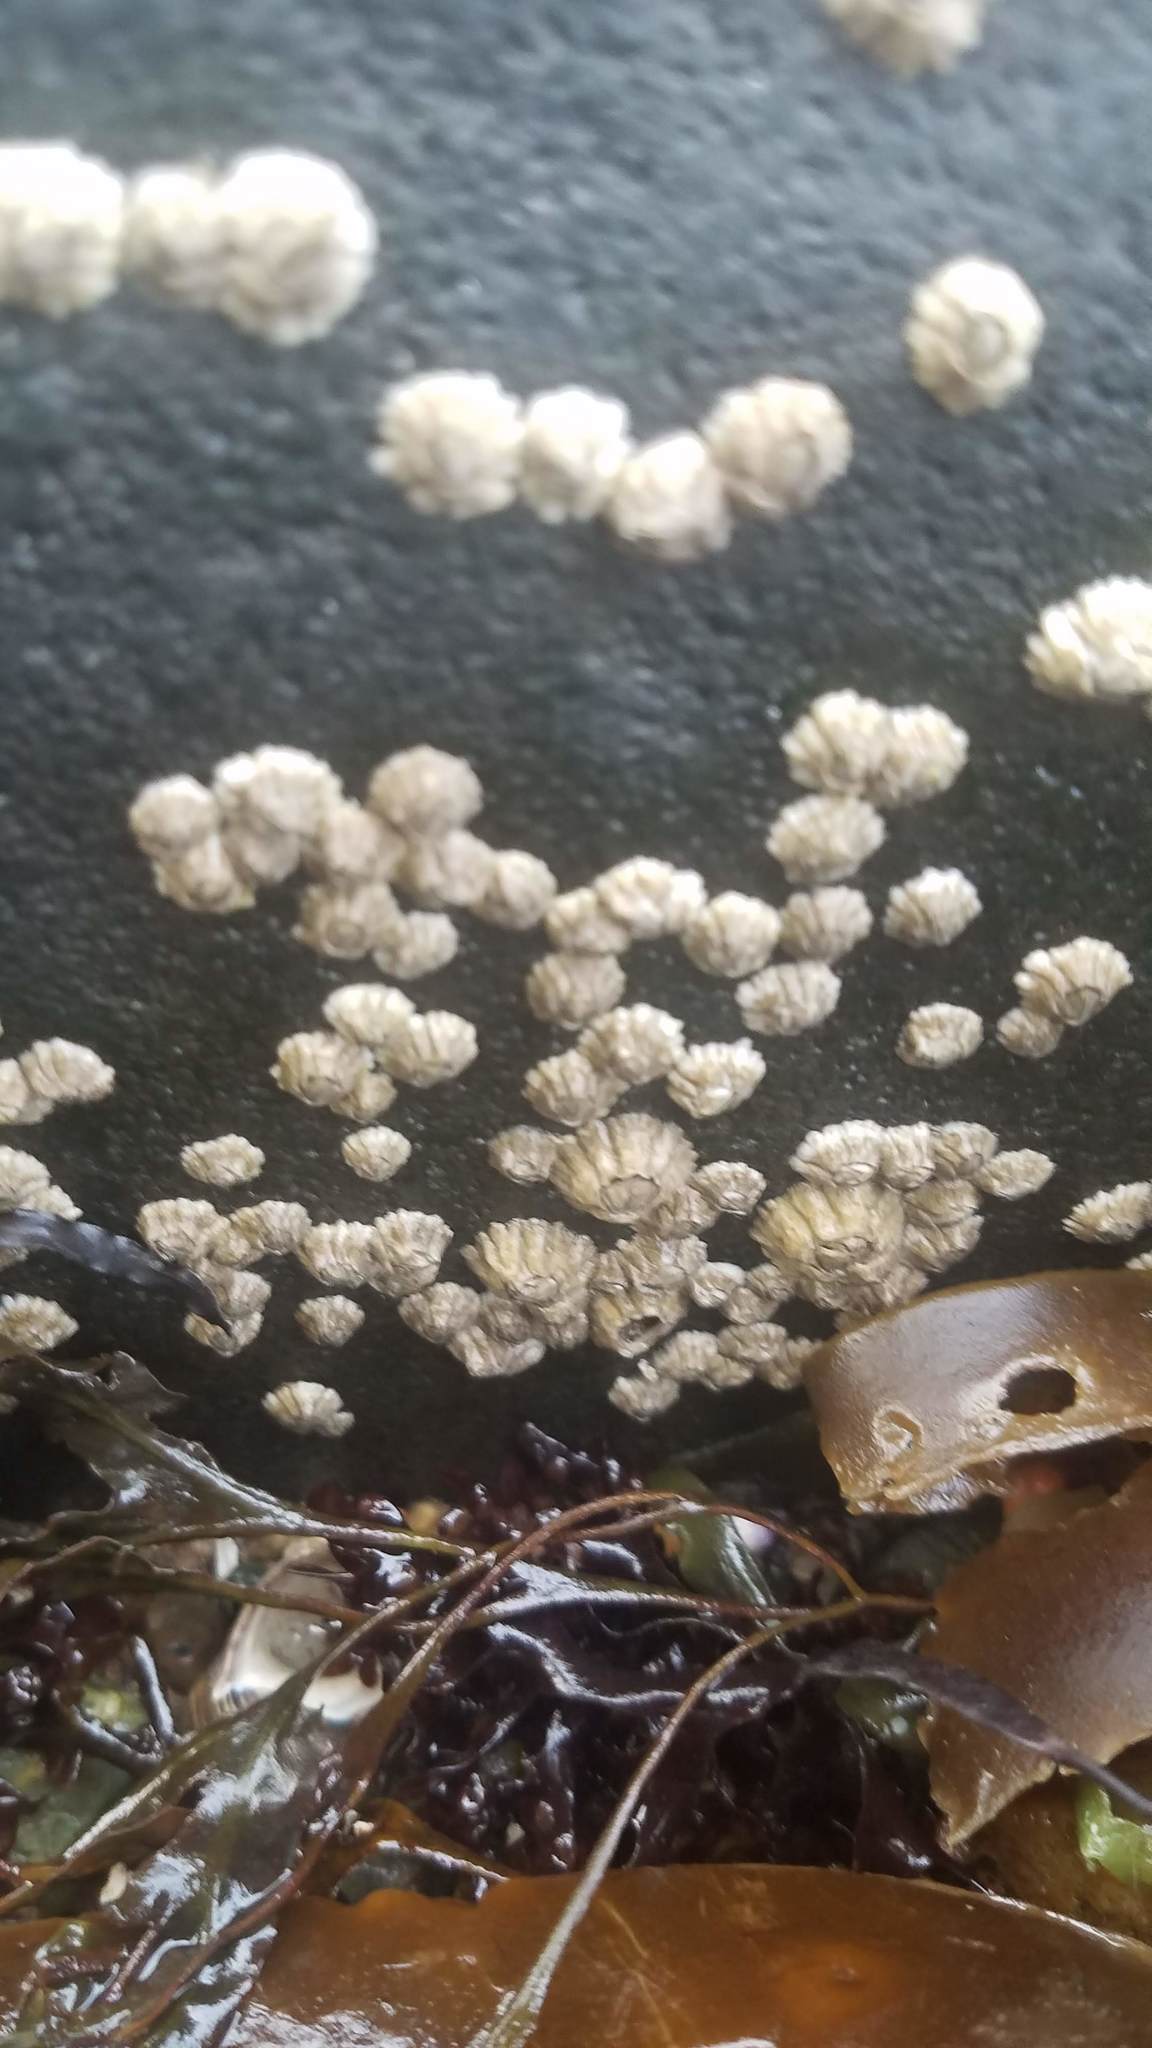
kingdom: Animalia
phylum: Arthropoda
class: Maxillopoda
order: Sessilia
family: Archaeobalanidae
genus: Semibalanus
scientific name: Semibalanus balanoides
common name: Acorn barnacle
